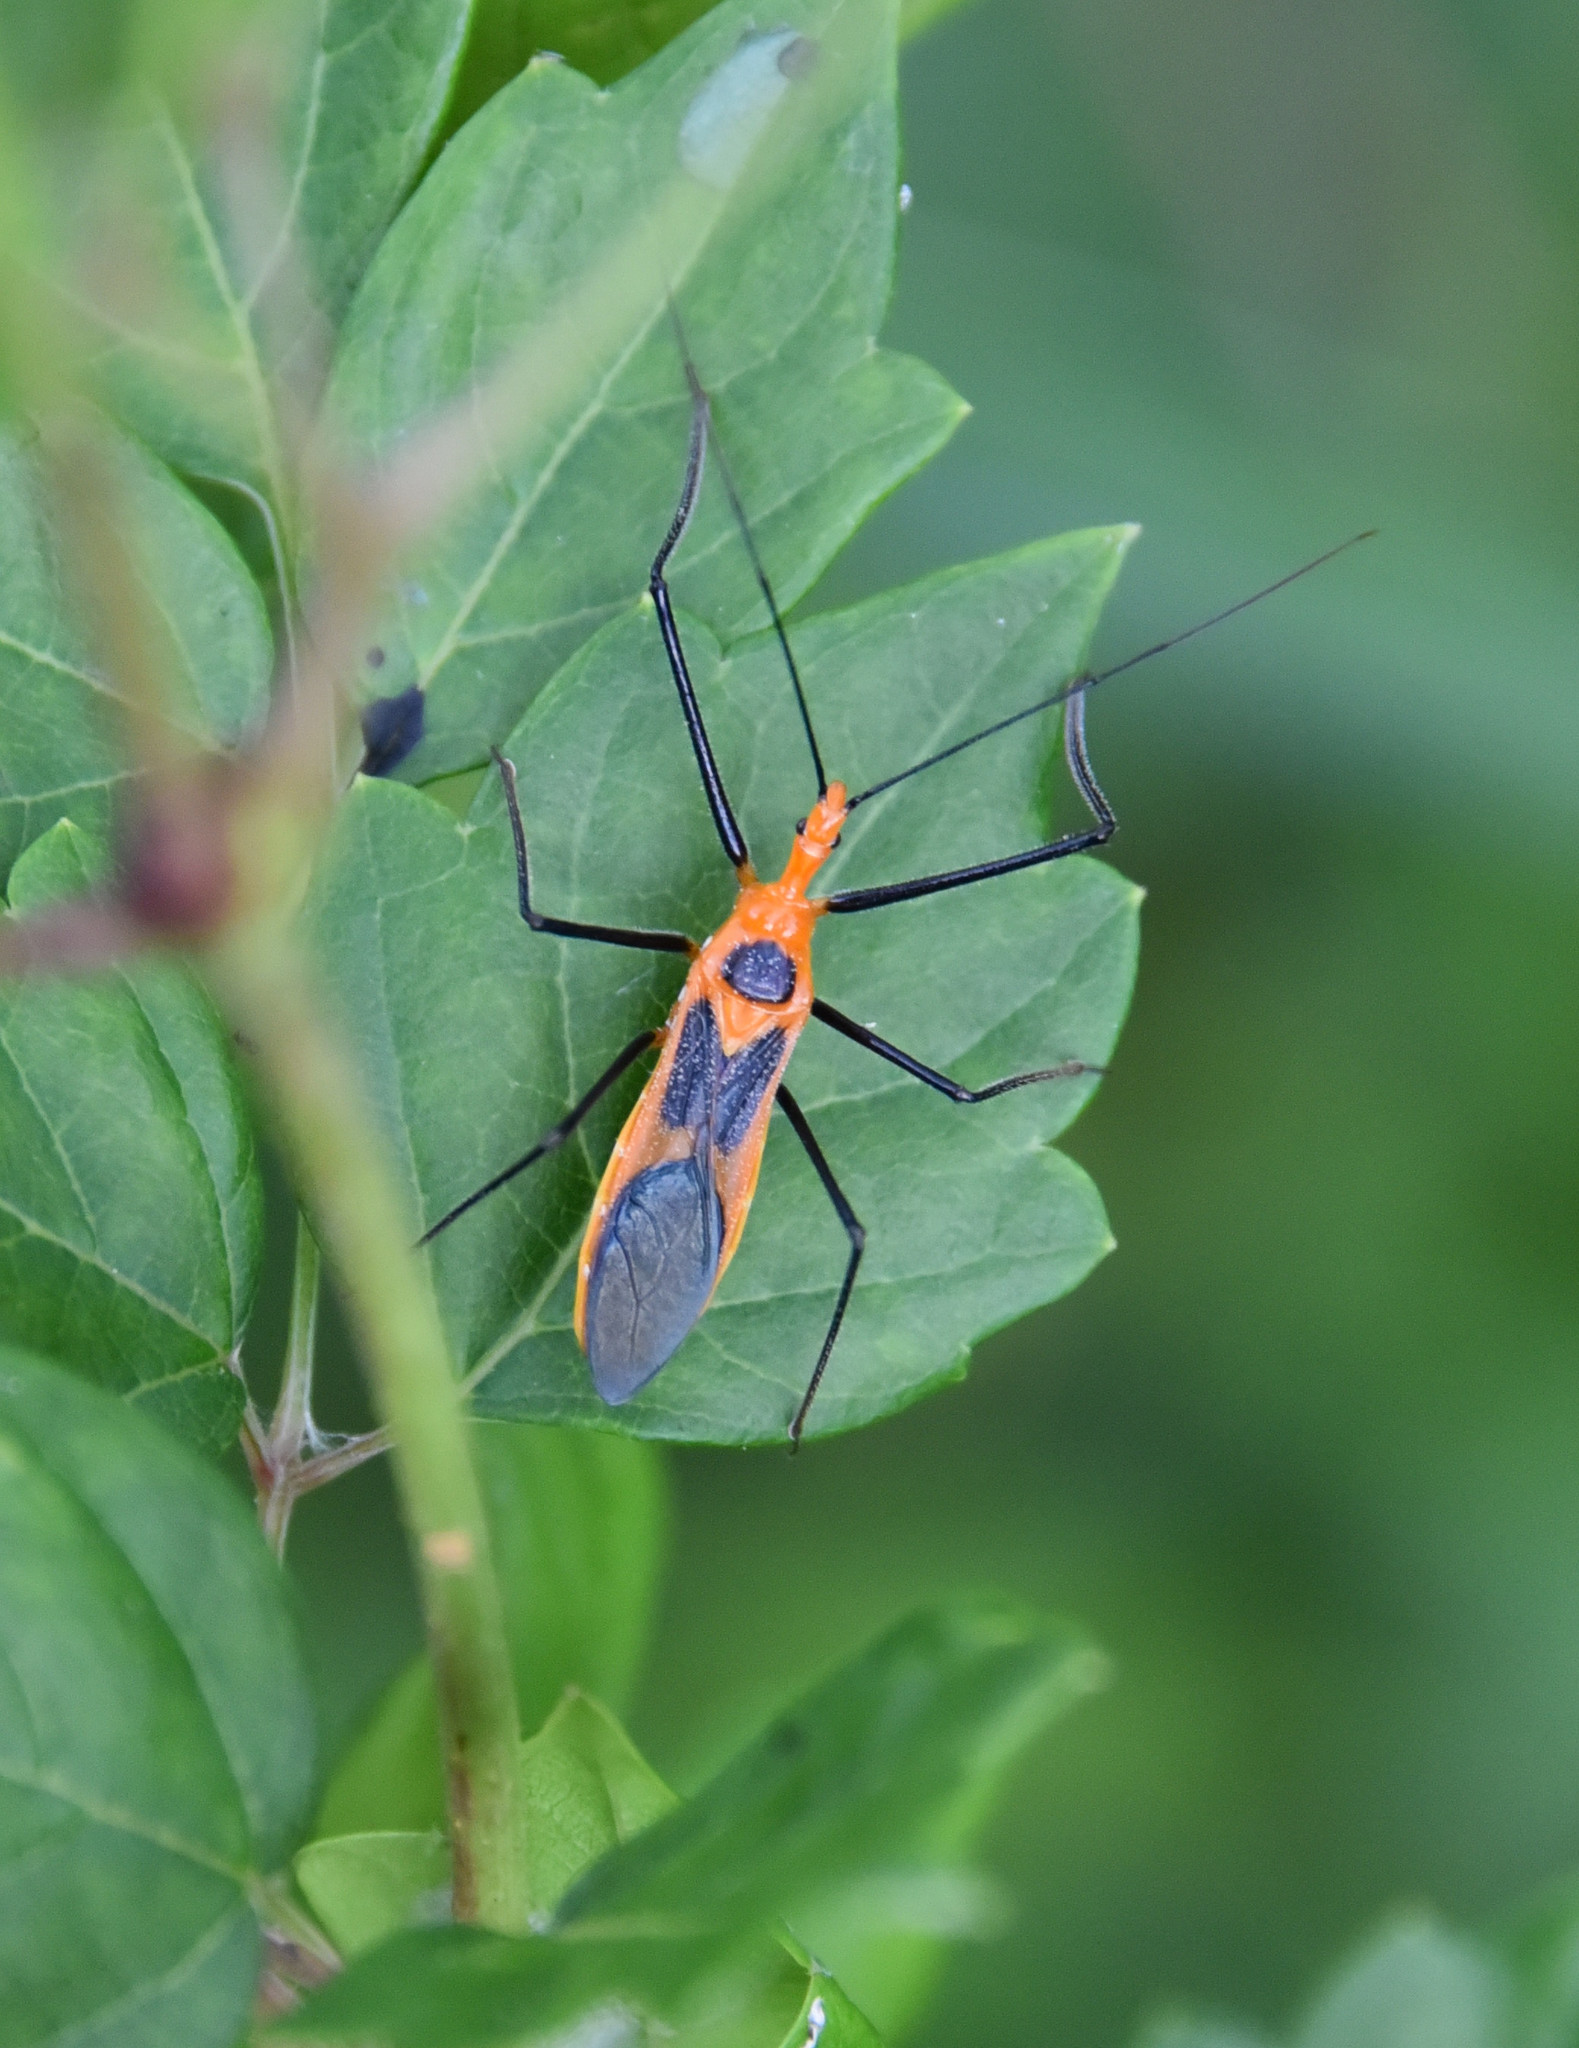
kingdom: Animalia
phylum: Arthropoda
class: Insecta
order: Hemiptera
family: Reduviidae
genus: Zelus
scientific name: Zelus longipes
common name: Milkweed assassin bug
